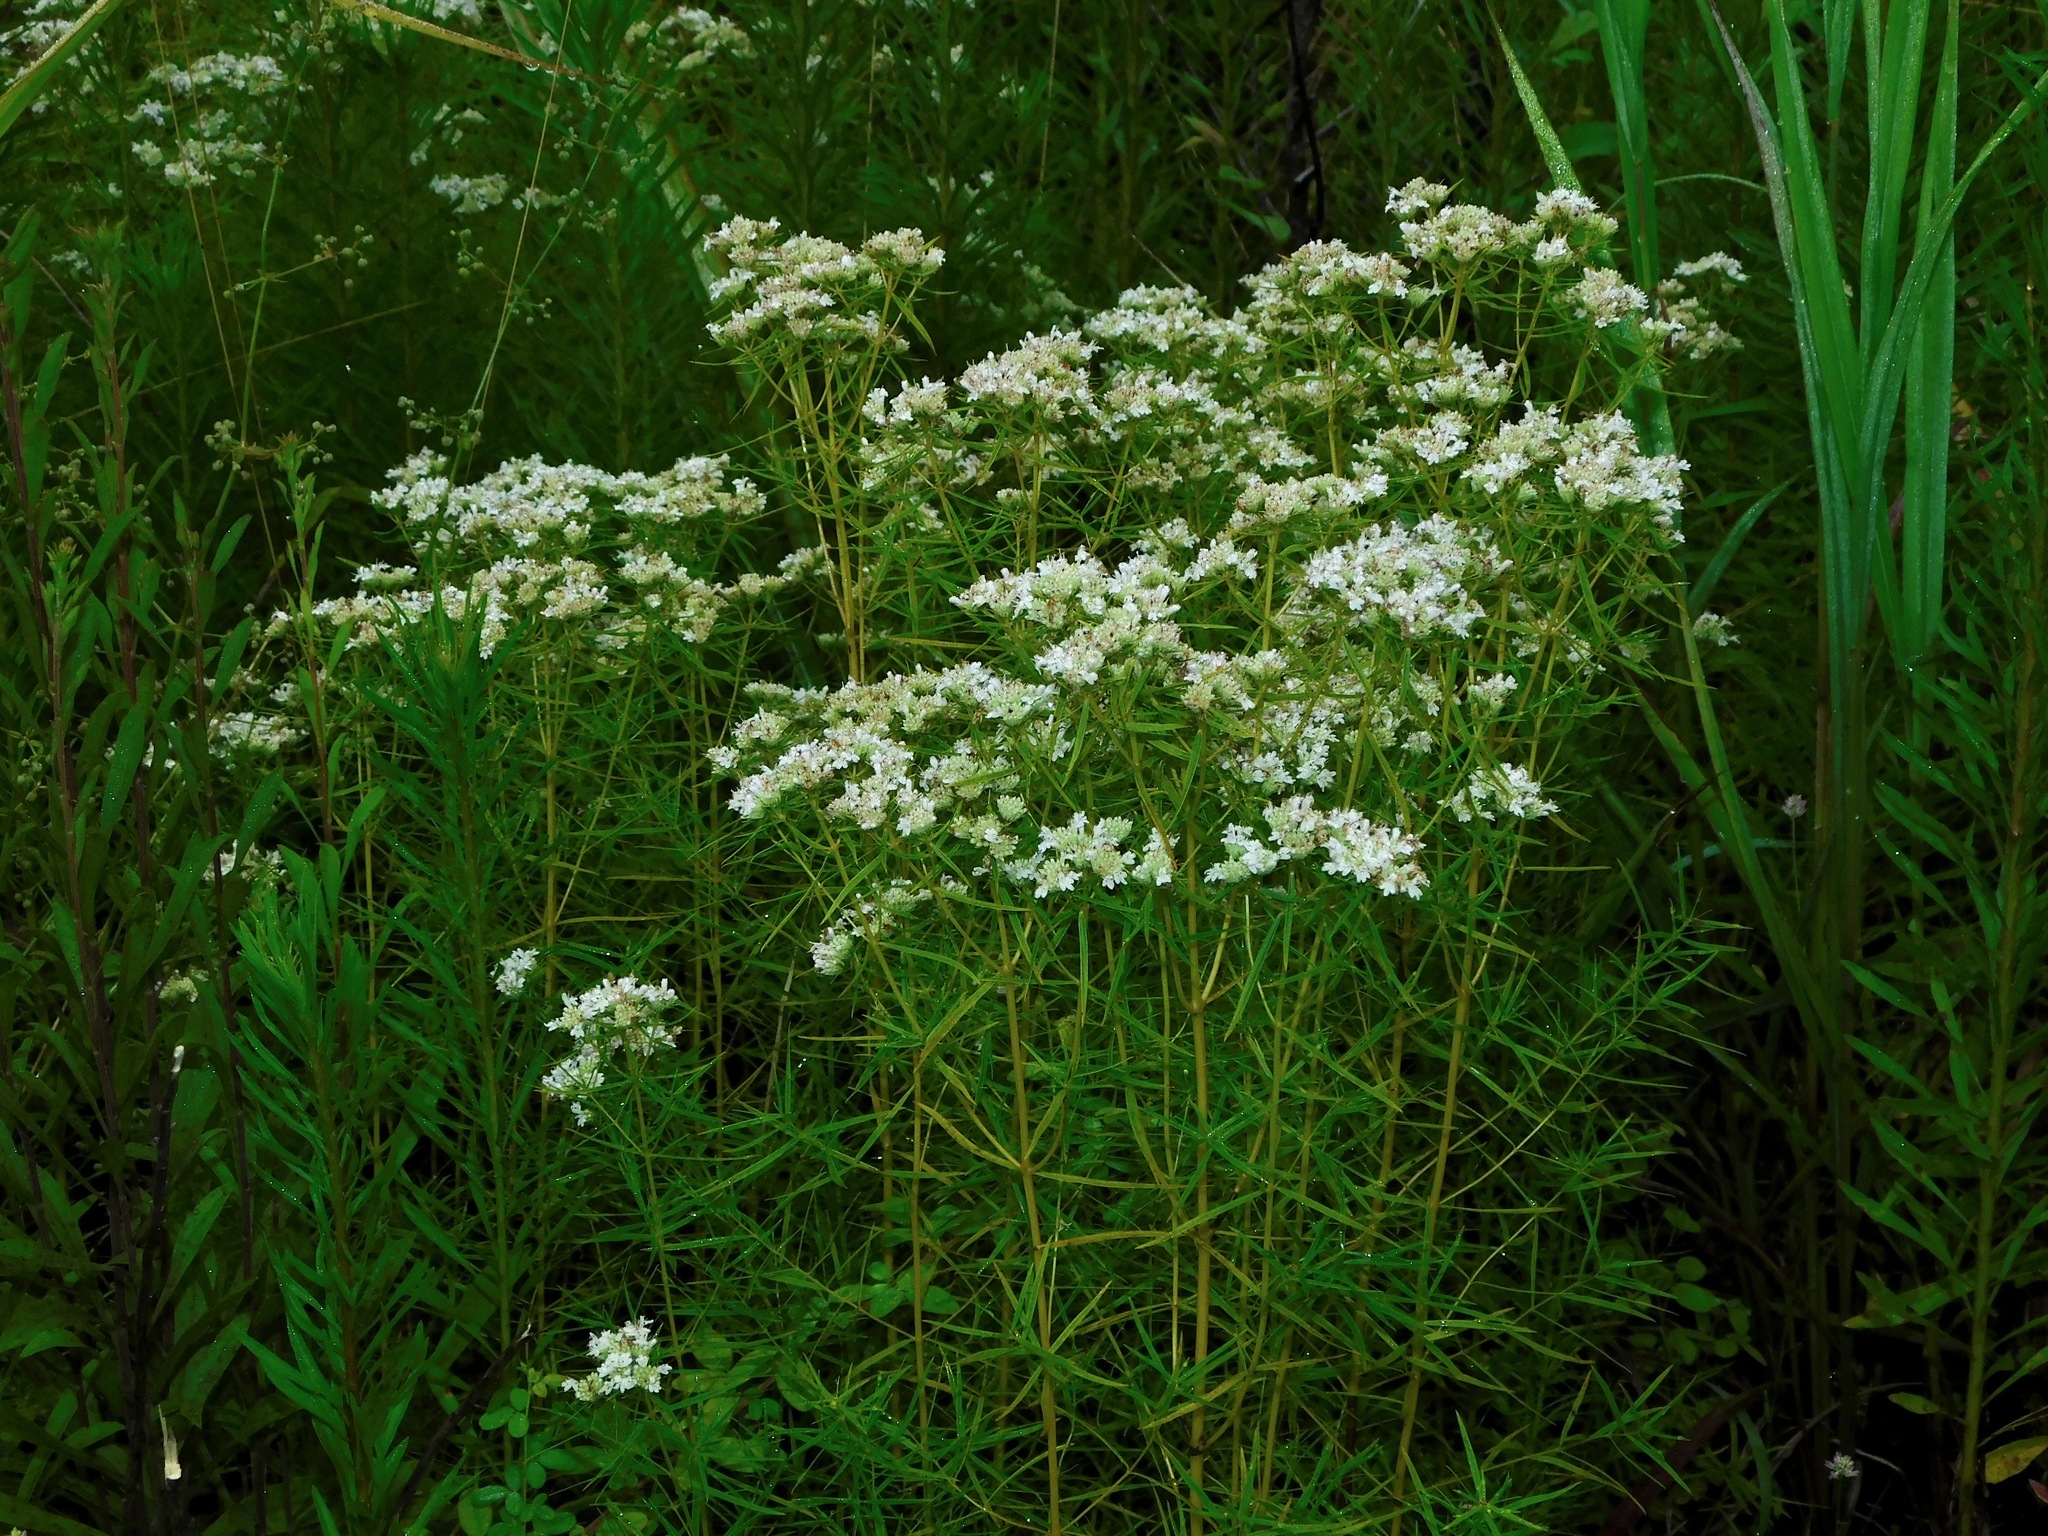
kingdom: Plantae
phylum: Tracheophyta
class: Magnoliopsida
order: Lamiales
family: Lamiaceae
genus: Pycnanthemum
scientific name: Pycnanthemum tenuifolium
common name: Narrow-leaf mountain-mint
